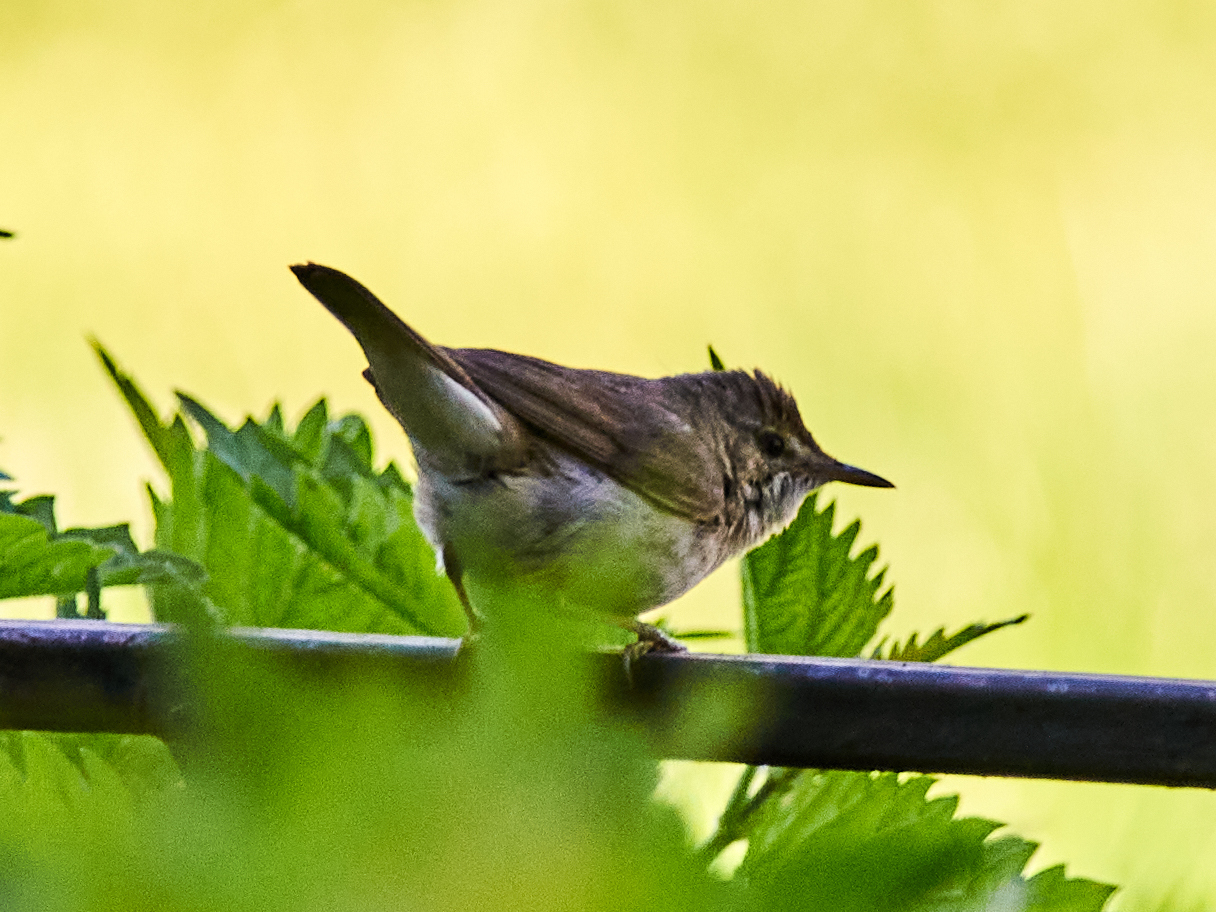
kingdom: Animalia
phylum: Chordata
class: Aves
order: Passeriformes
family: Acrocephalidae
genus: Acrocephalus
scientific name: Acrocephalus dumetorum
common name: Blyth's reed warbler
